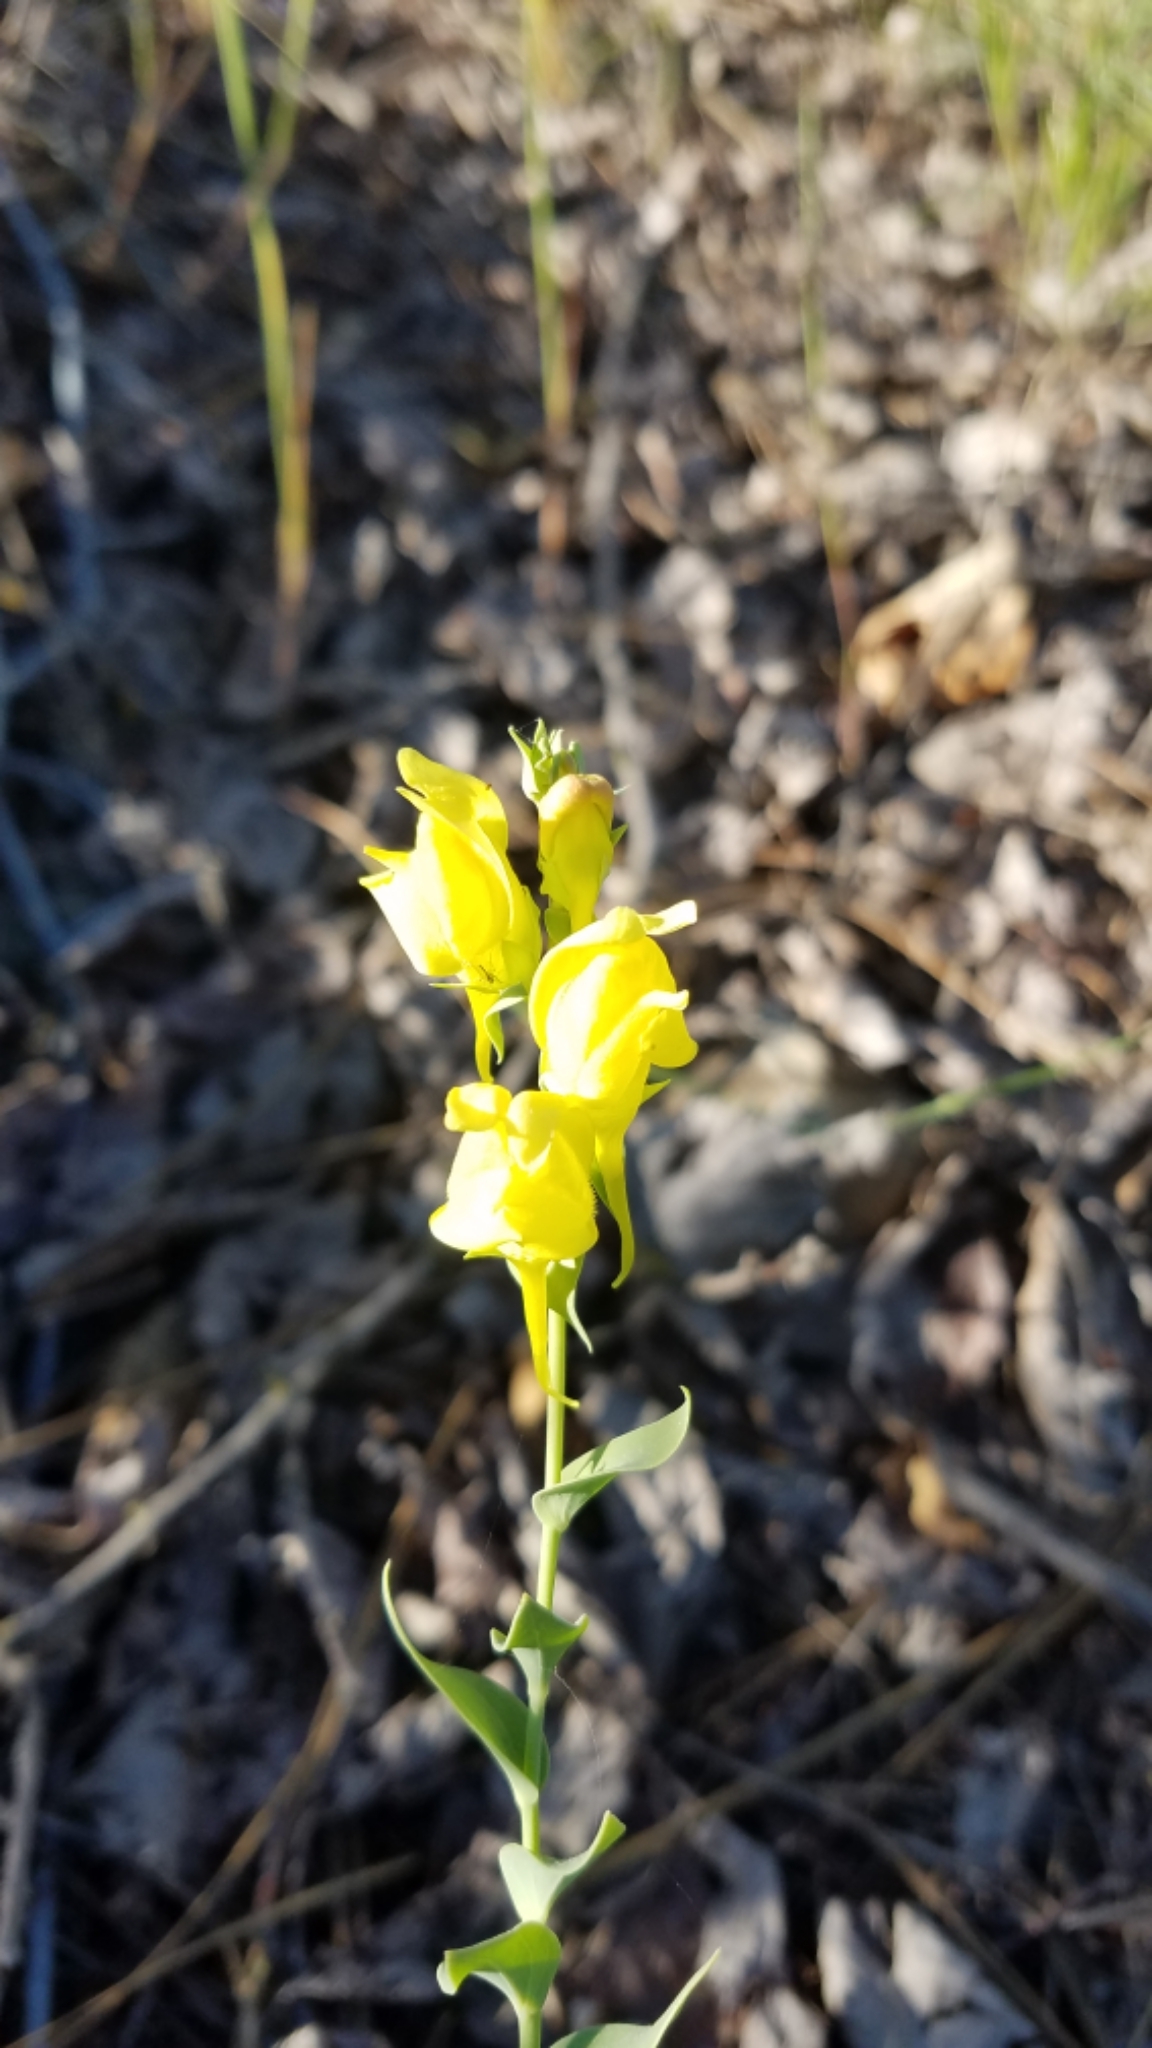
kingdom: Plantae
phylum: Tracheophyta
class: Magnoliopsida
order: Lamiales
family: Plantaginaceae
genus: Linaria
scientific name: Linaria dalmatica
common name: Dalmatian toadflax
